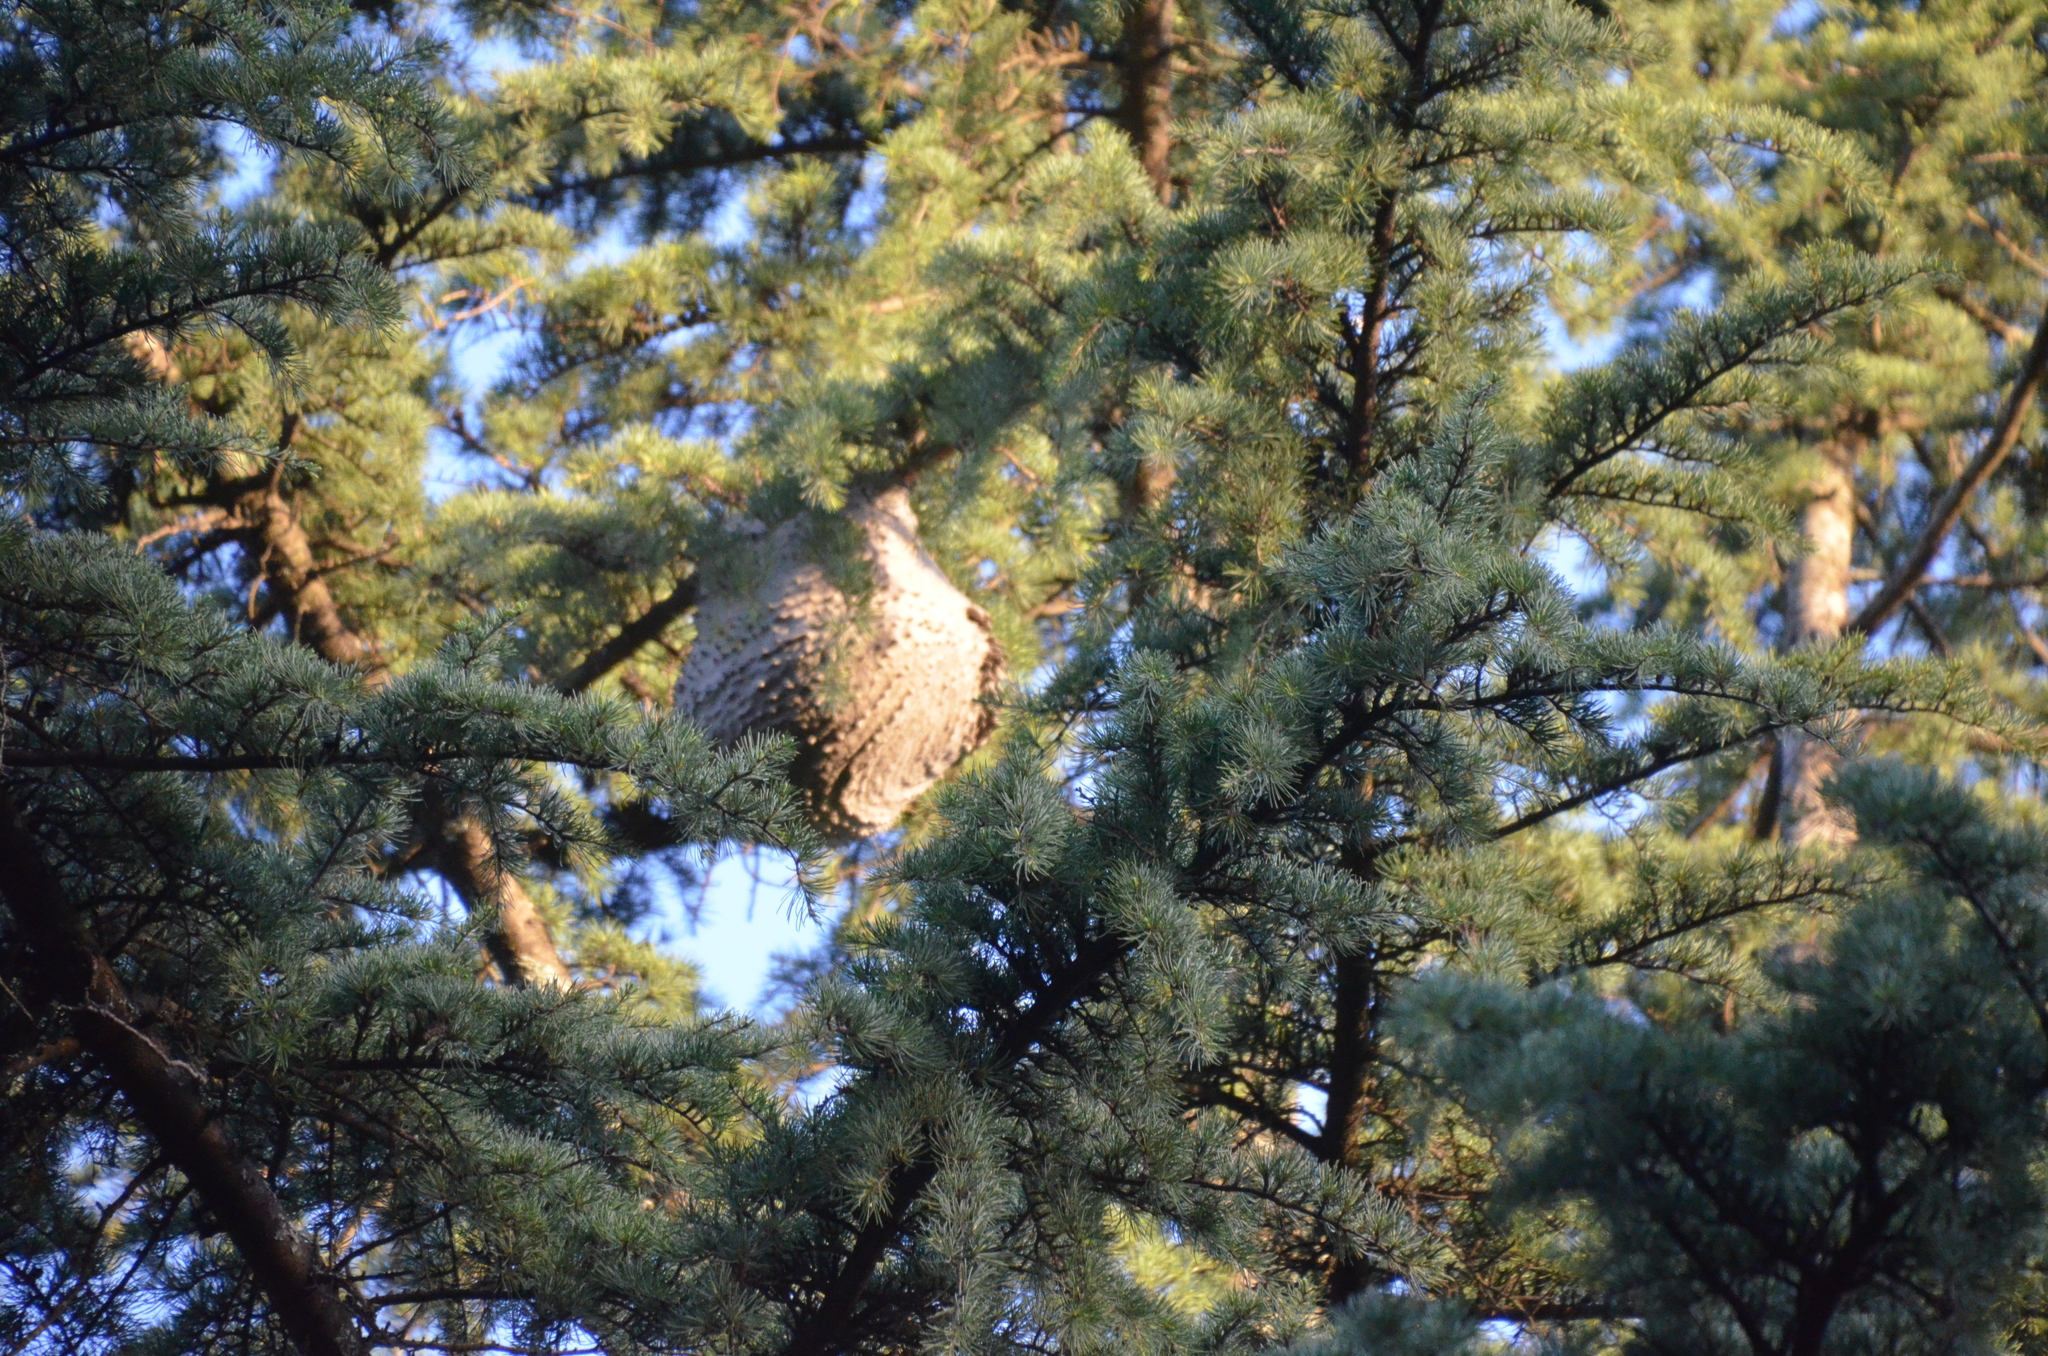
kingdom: Animalia
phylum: Arthropoda
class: Insecta
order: Hymenoptera
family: Eumenidae
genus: Polybia
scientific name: Polybia scutellaris
